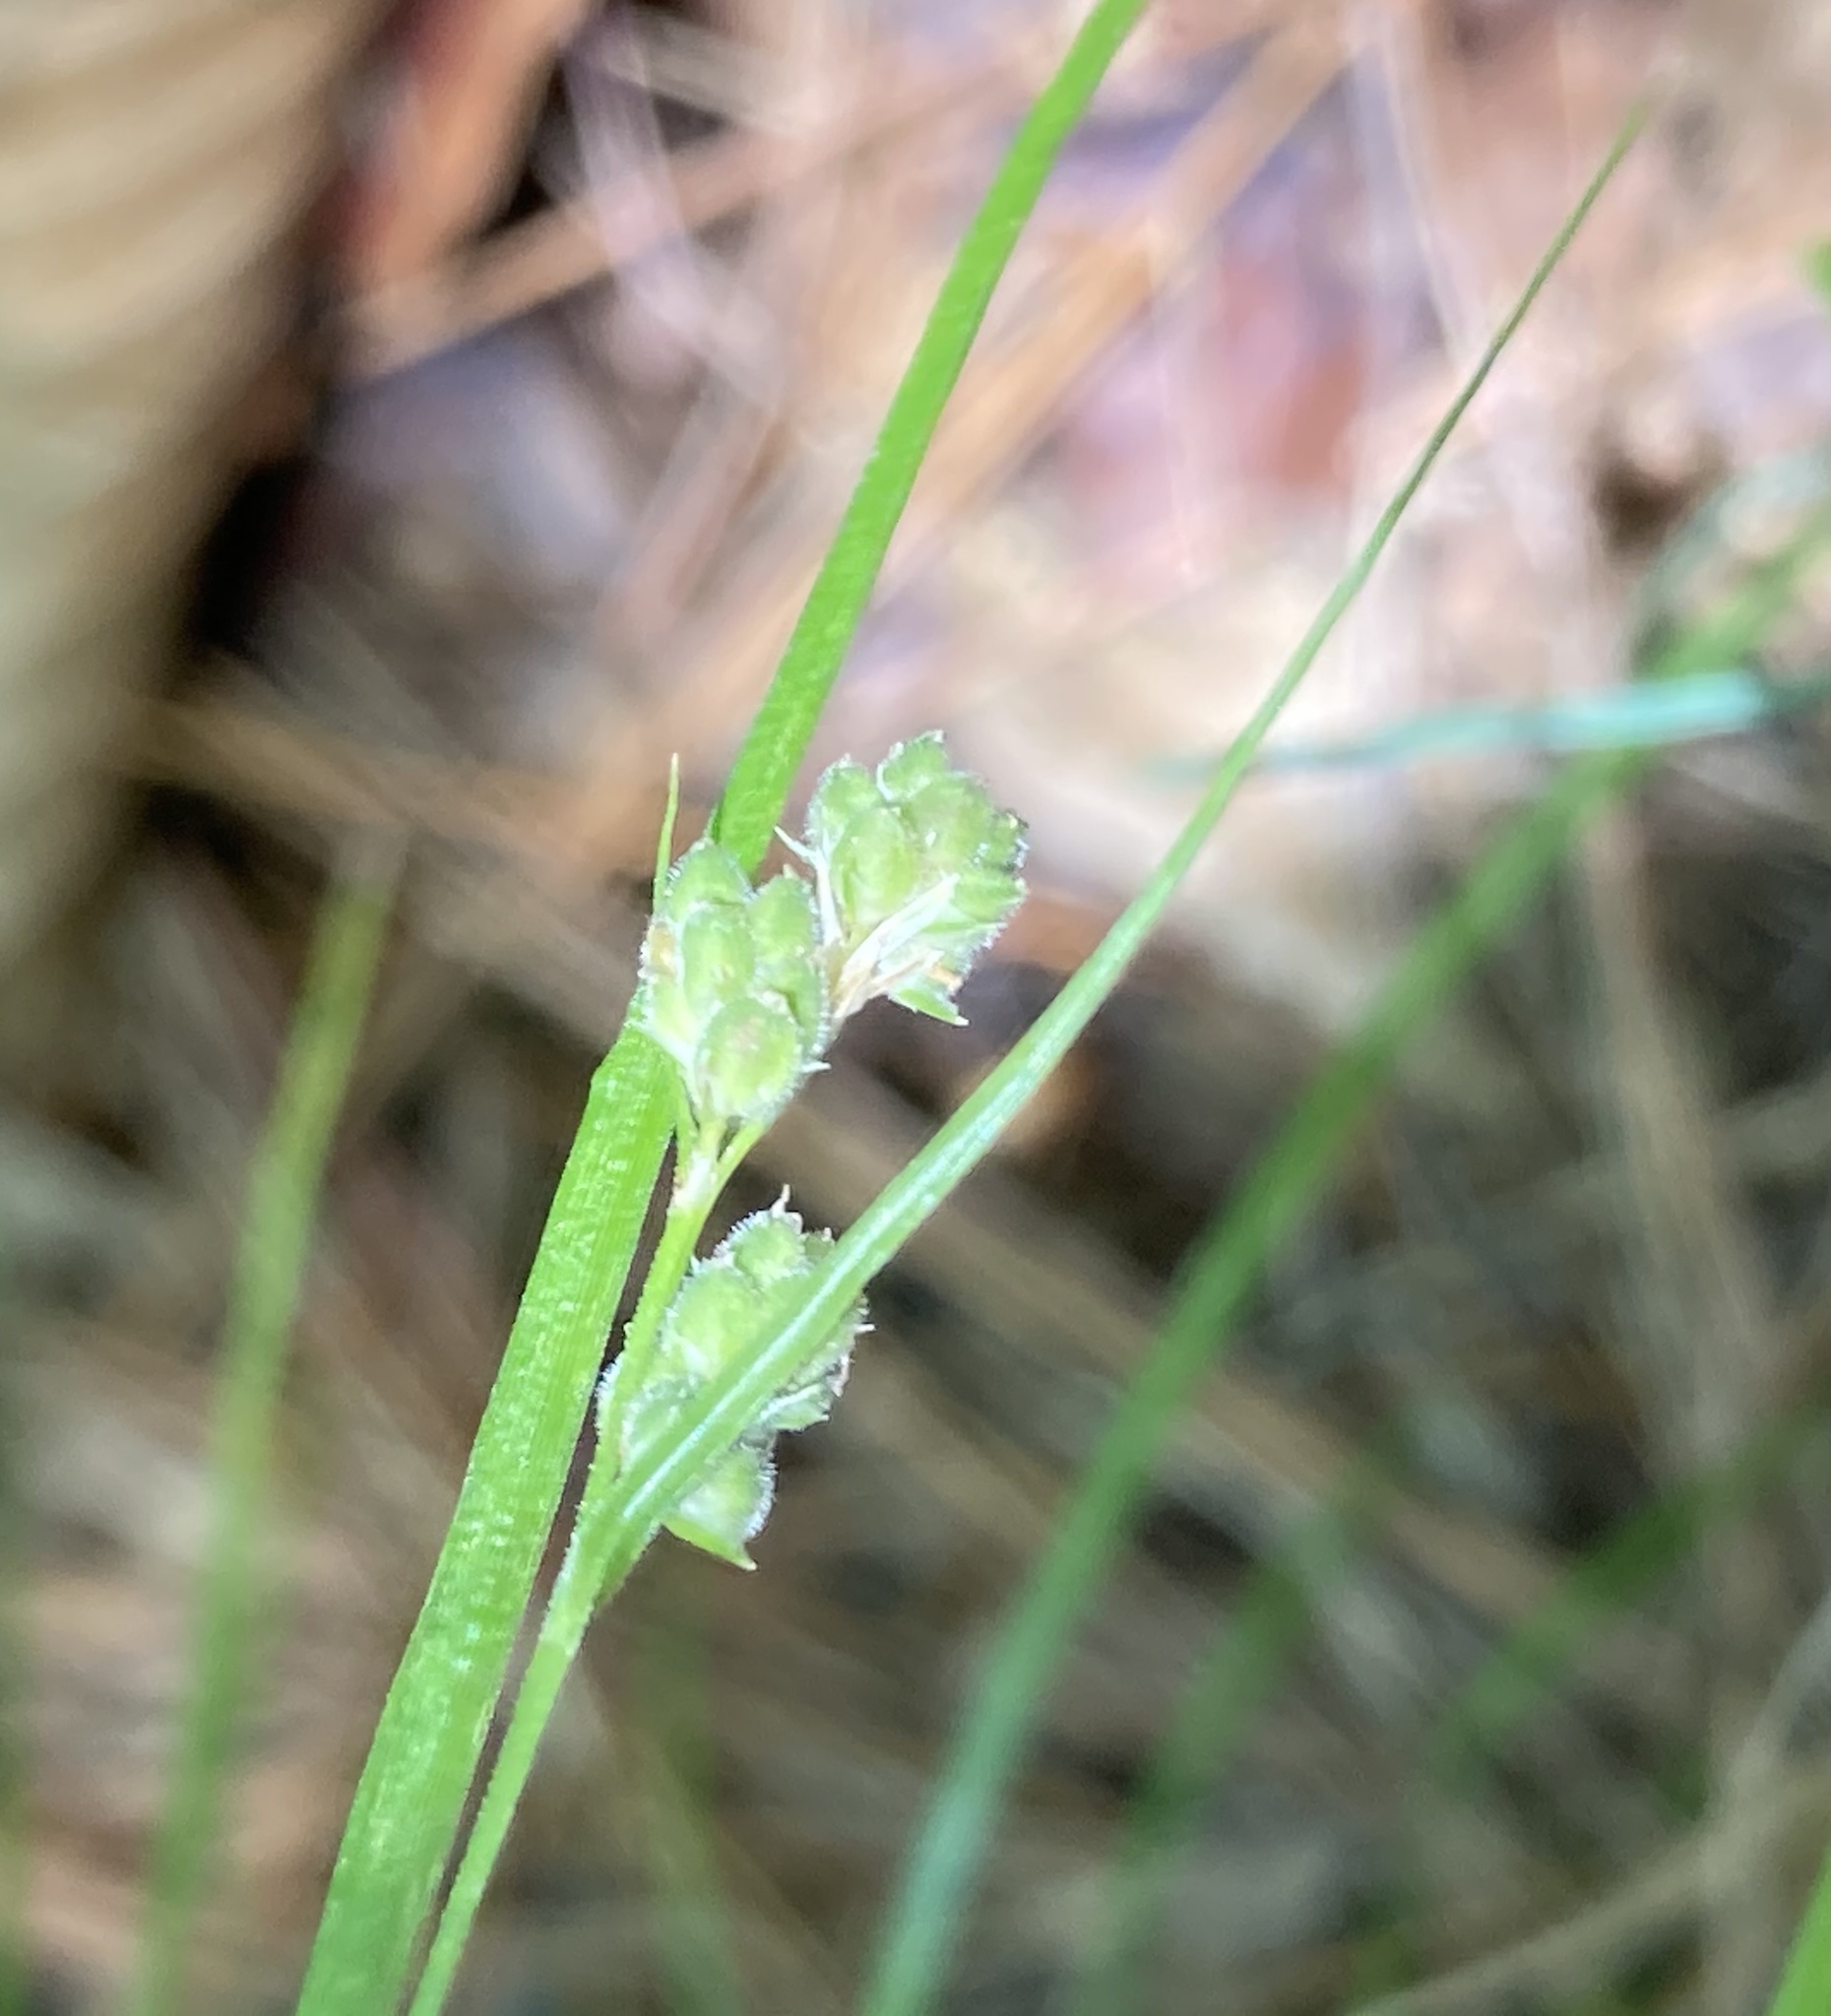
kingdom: Plantae
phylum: Tracheophyta
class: Liliopsida
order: Poales
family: Cyperaceae
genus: Carex
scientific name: Carex swanii
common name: Downy green sedge
